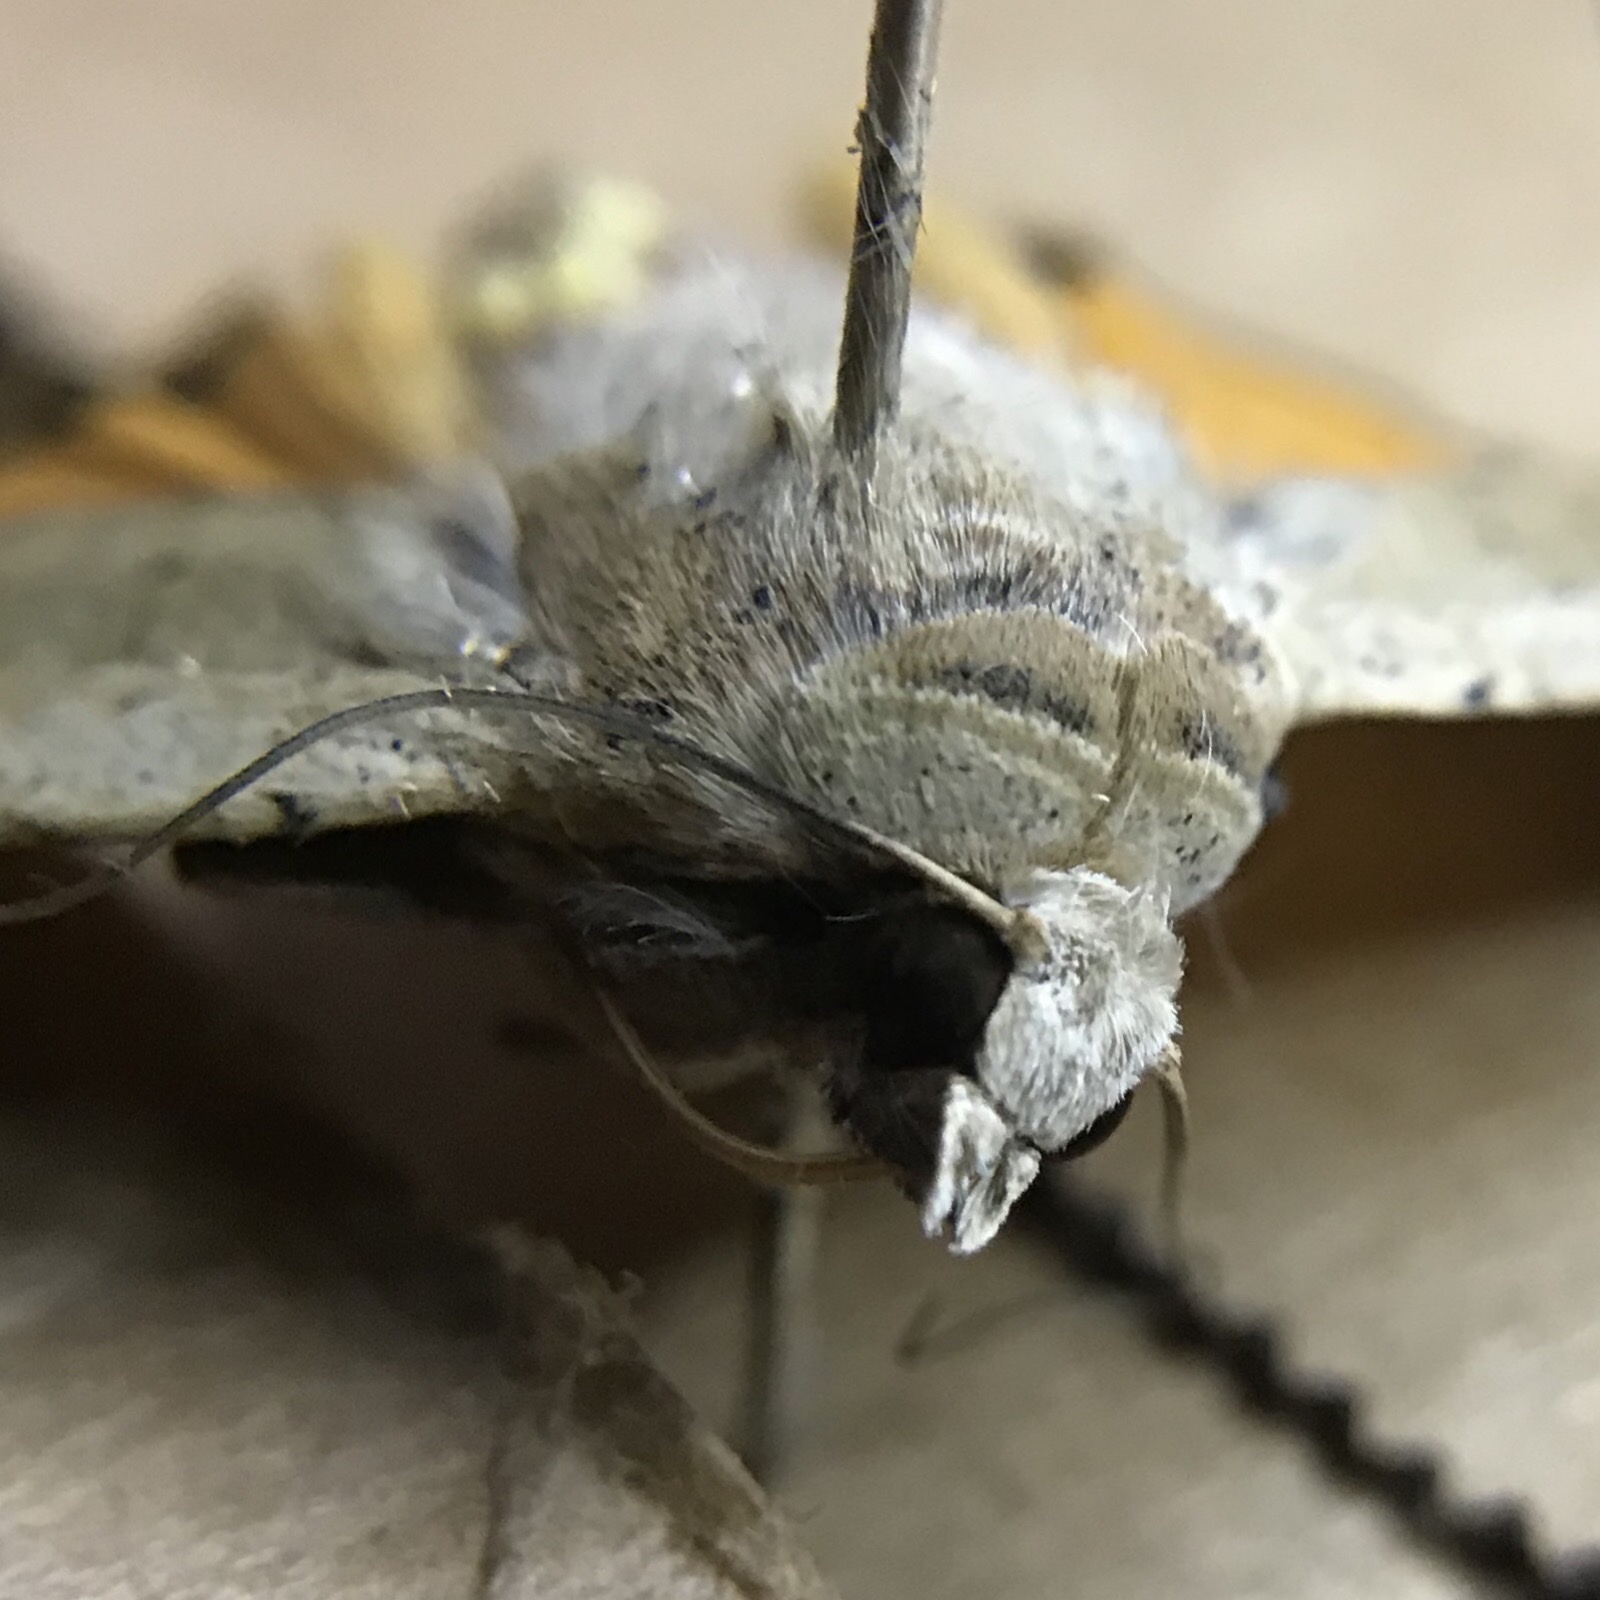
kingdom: Animalia
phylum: Arthropoda
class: Insecta
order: Lepidoptera
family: Noctuidae
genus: Noctua
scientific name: Noctua pronuba
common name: Large yellow underwing
